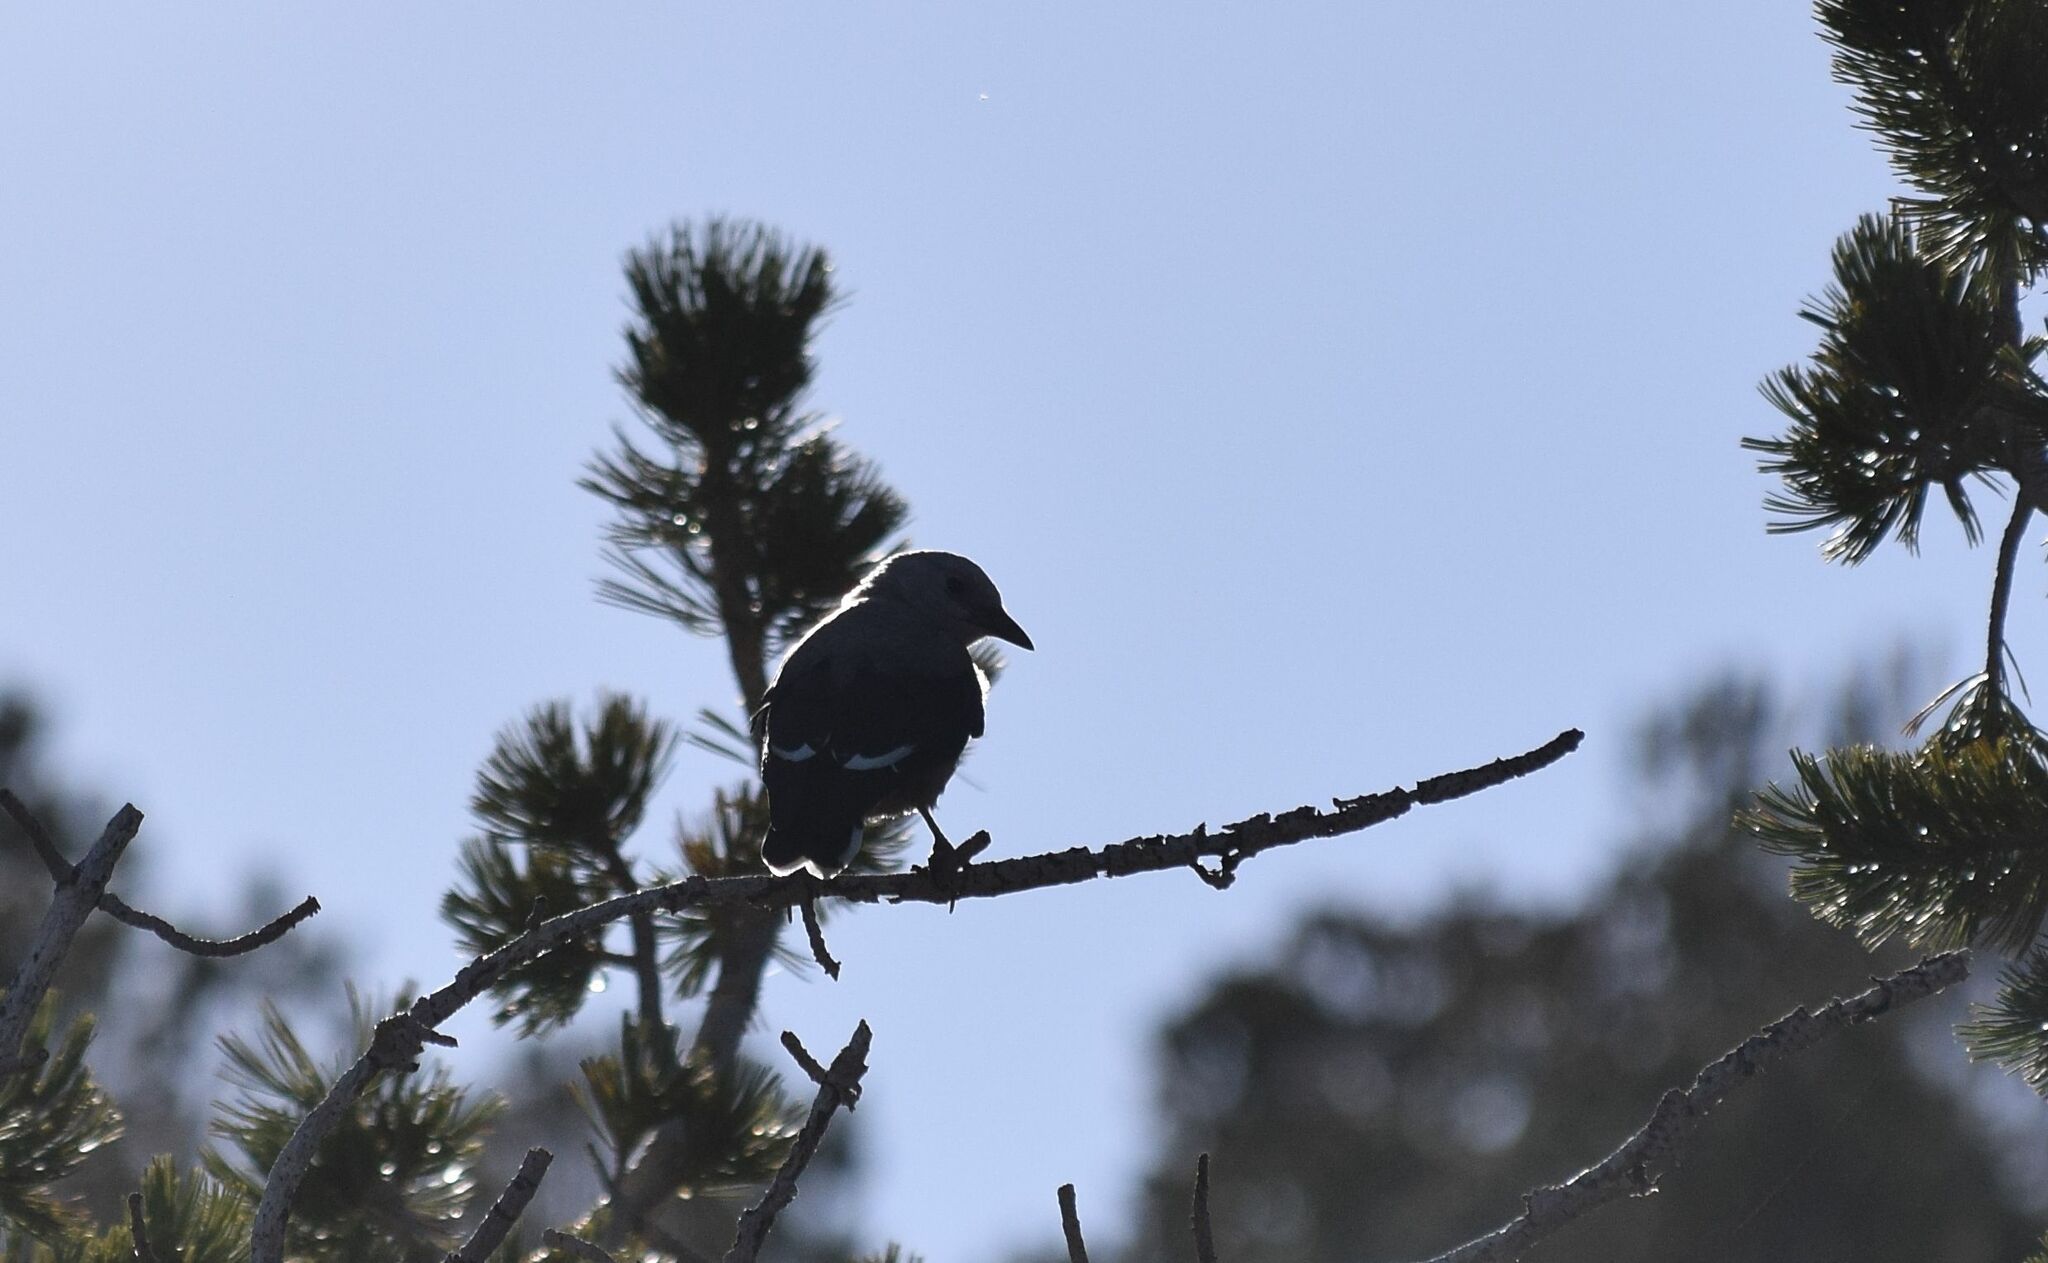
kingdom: Animalia
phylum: Chordata
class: Aves
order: Passeriformes
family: Corvidae
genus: Nucifraga
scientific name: Nucifraga columbiana
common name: Clark's nutcracker
